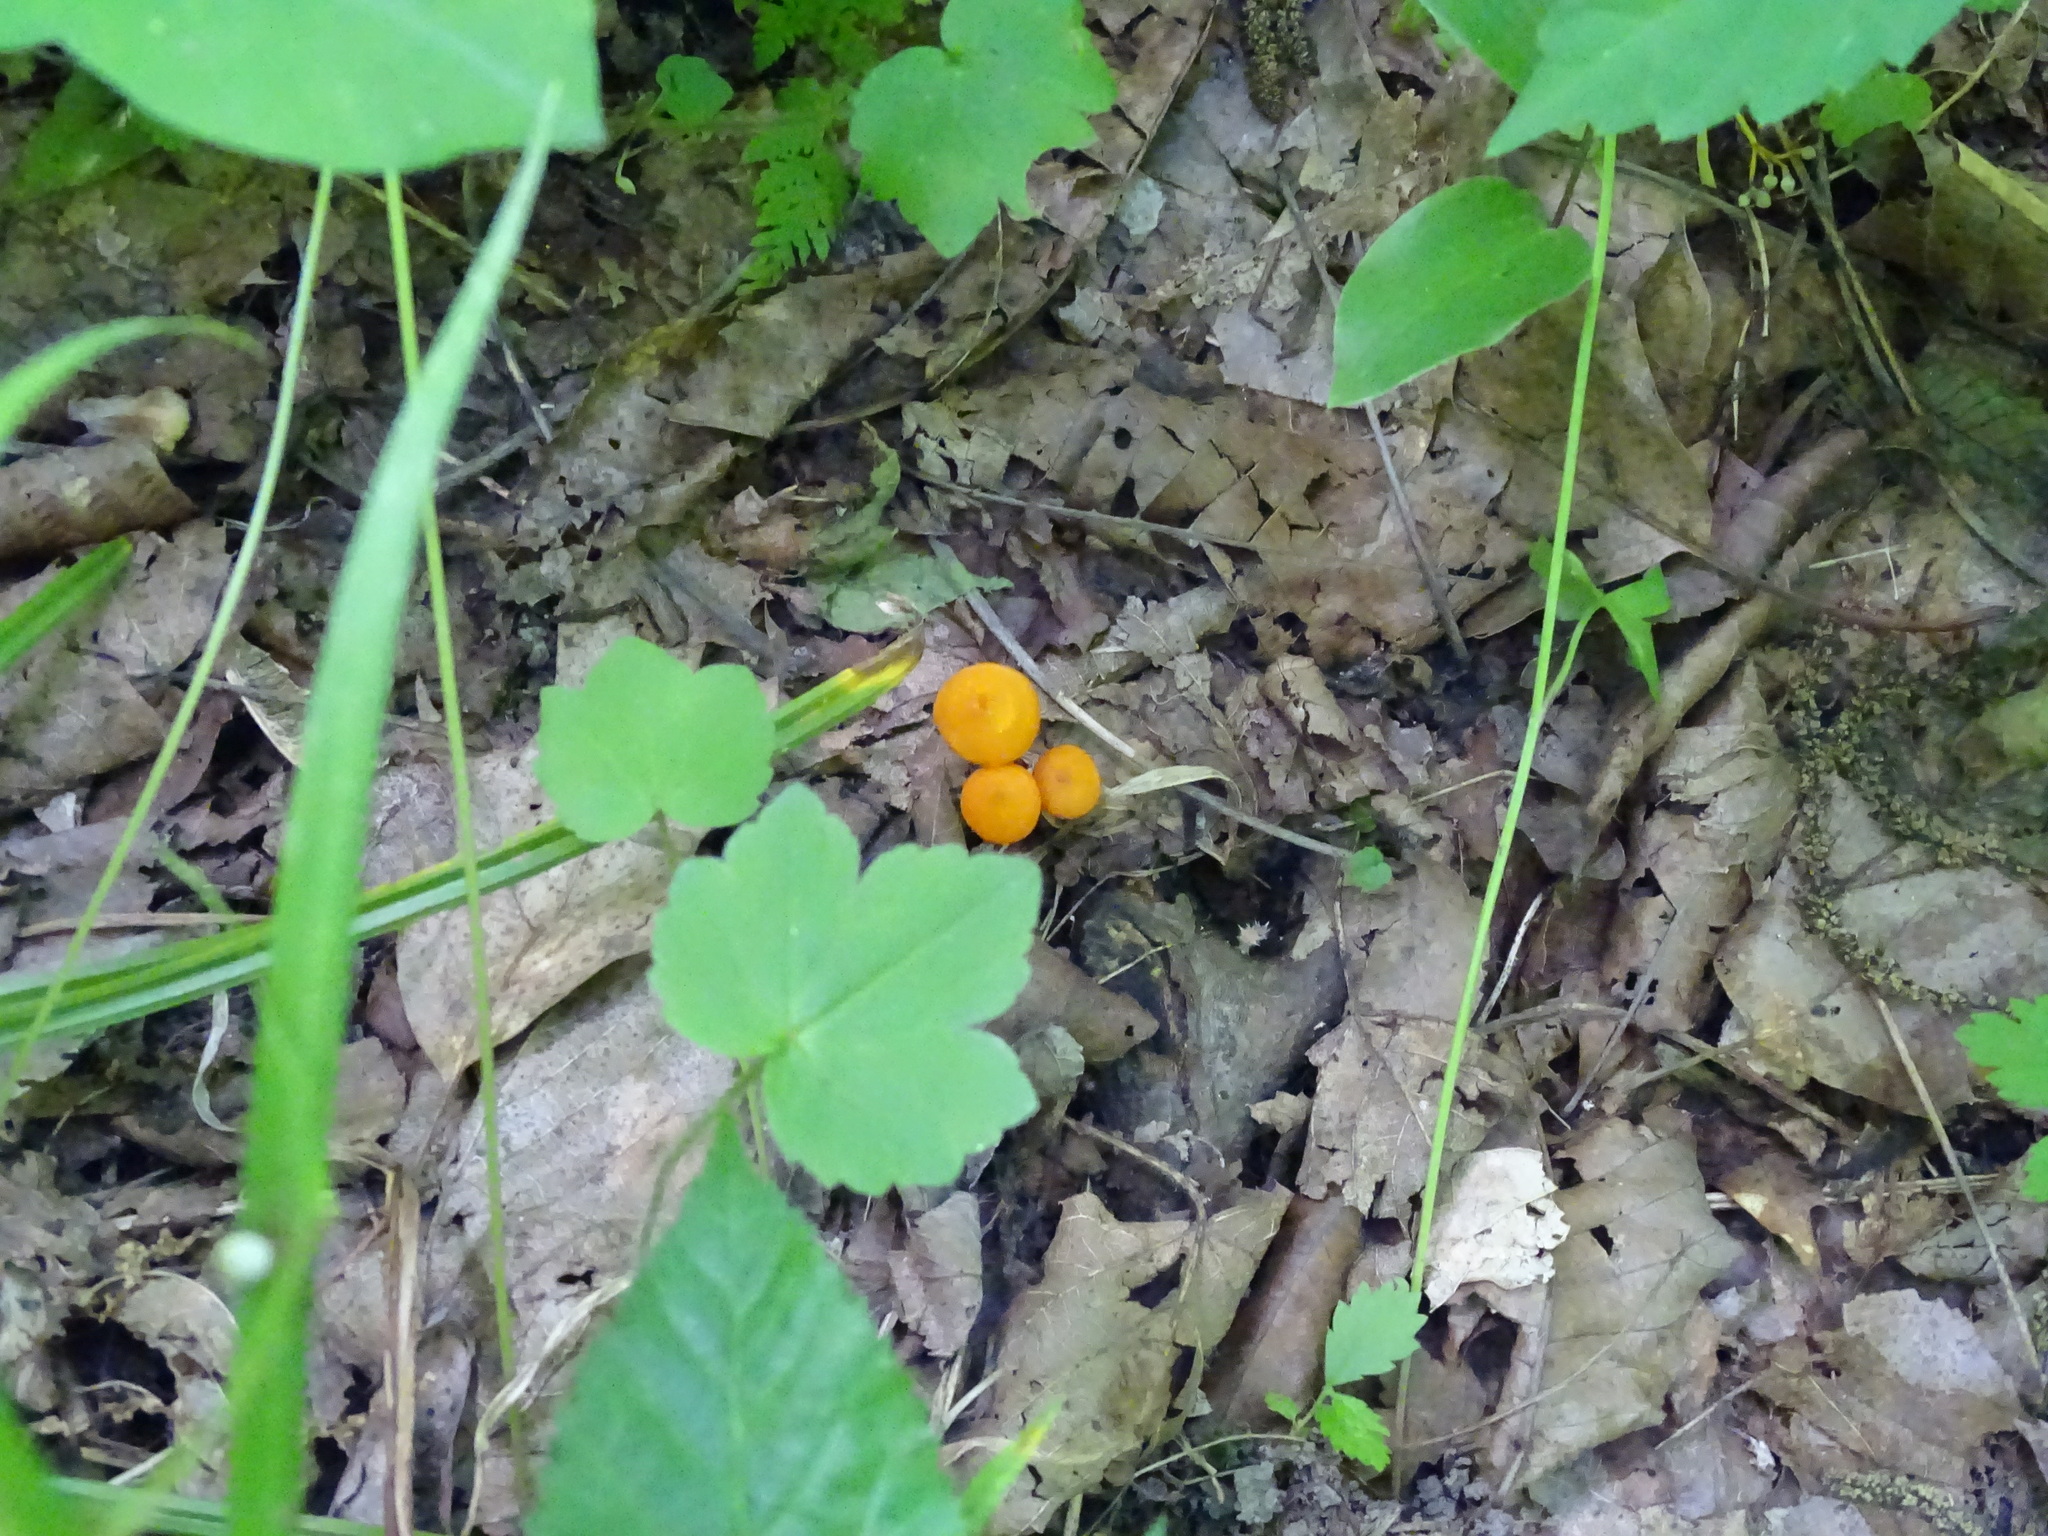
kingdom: Fungi
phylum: Basidiomycota
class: Agaricomycetes
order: Agaricales
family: Mycenaceae
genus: Mycena
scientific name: Mycena leaiana
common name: Orange mycena
